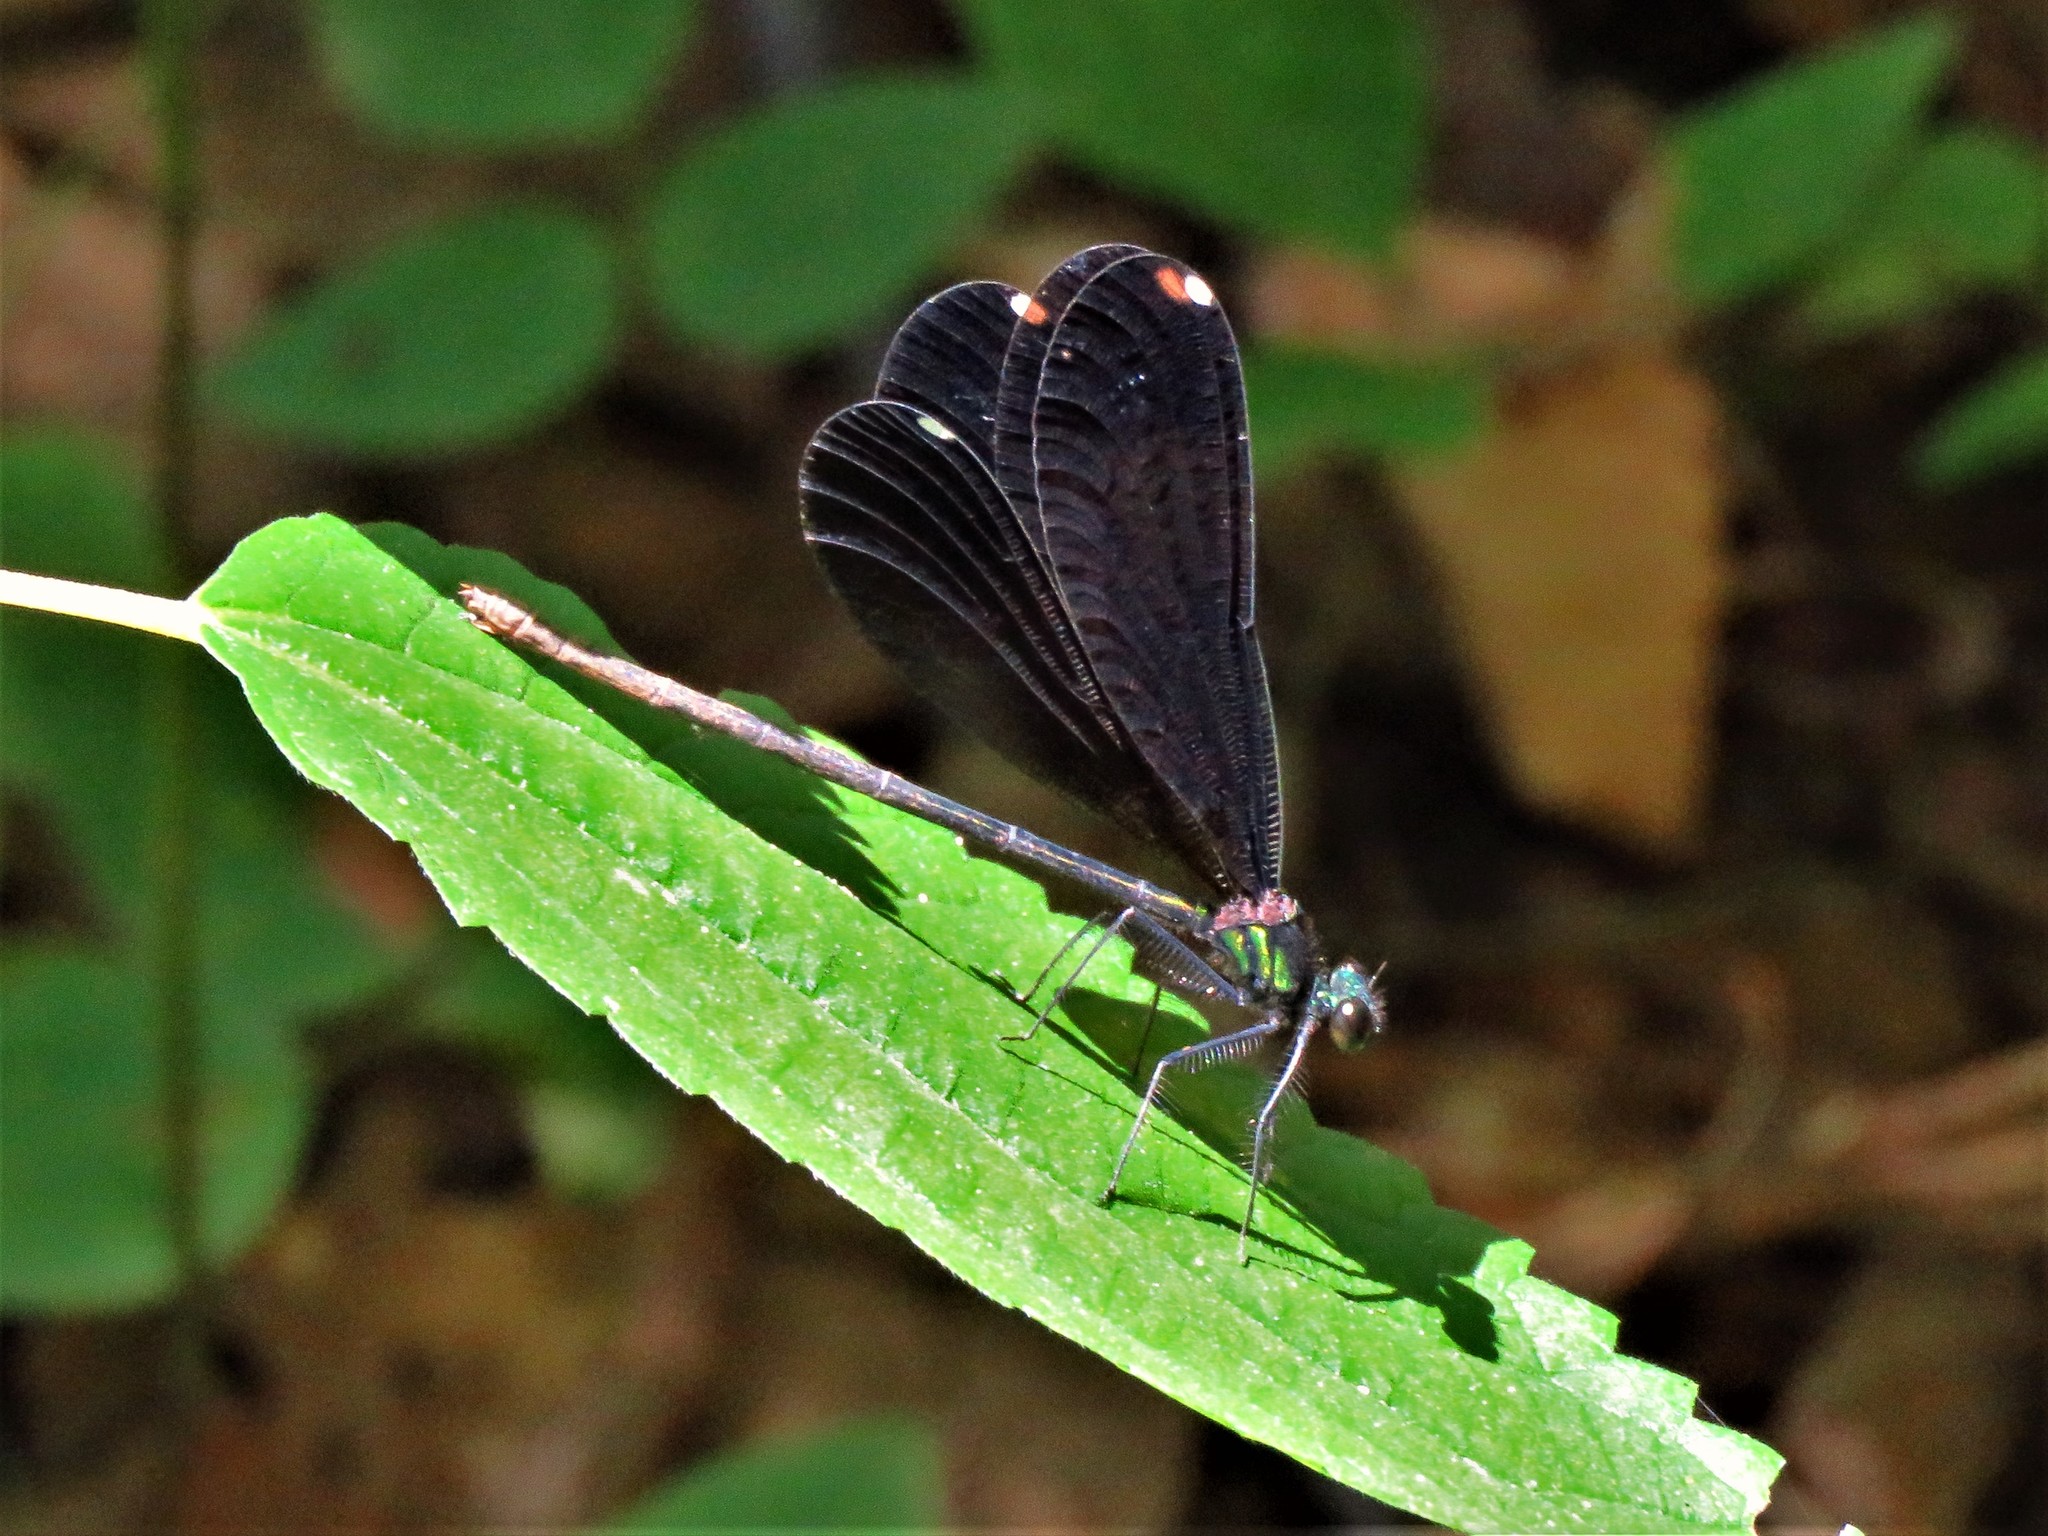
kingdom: Animalia
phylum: Arthropoda
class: Insecta
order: Odonata
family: Calopterygidae
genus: Calopteryx
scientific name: Calopteryx maculata
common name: Ebony jewelwing
